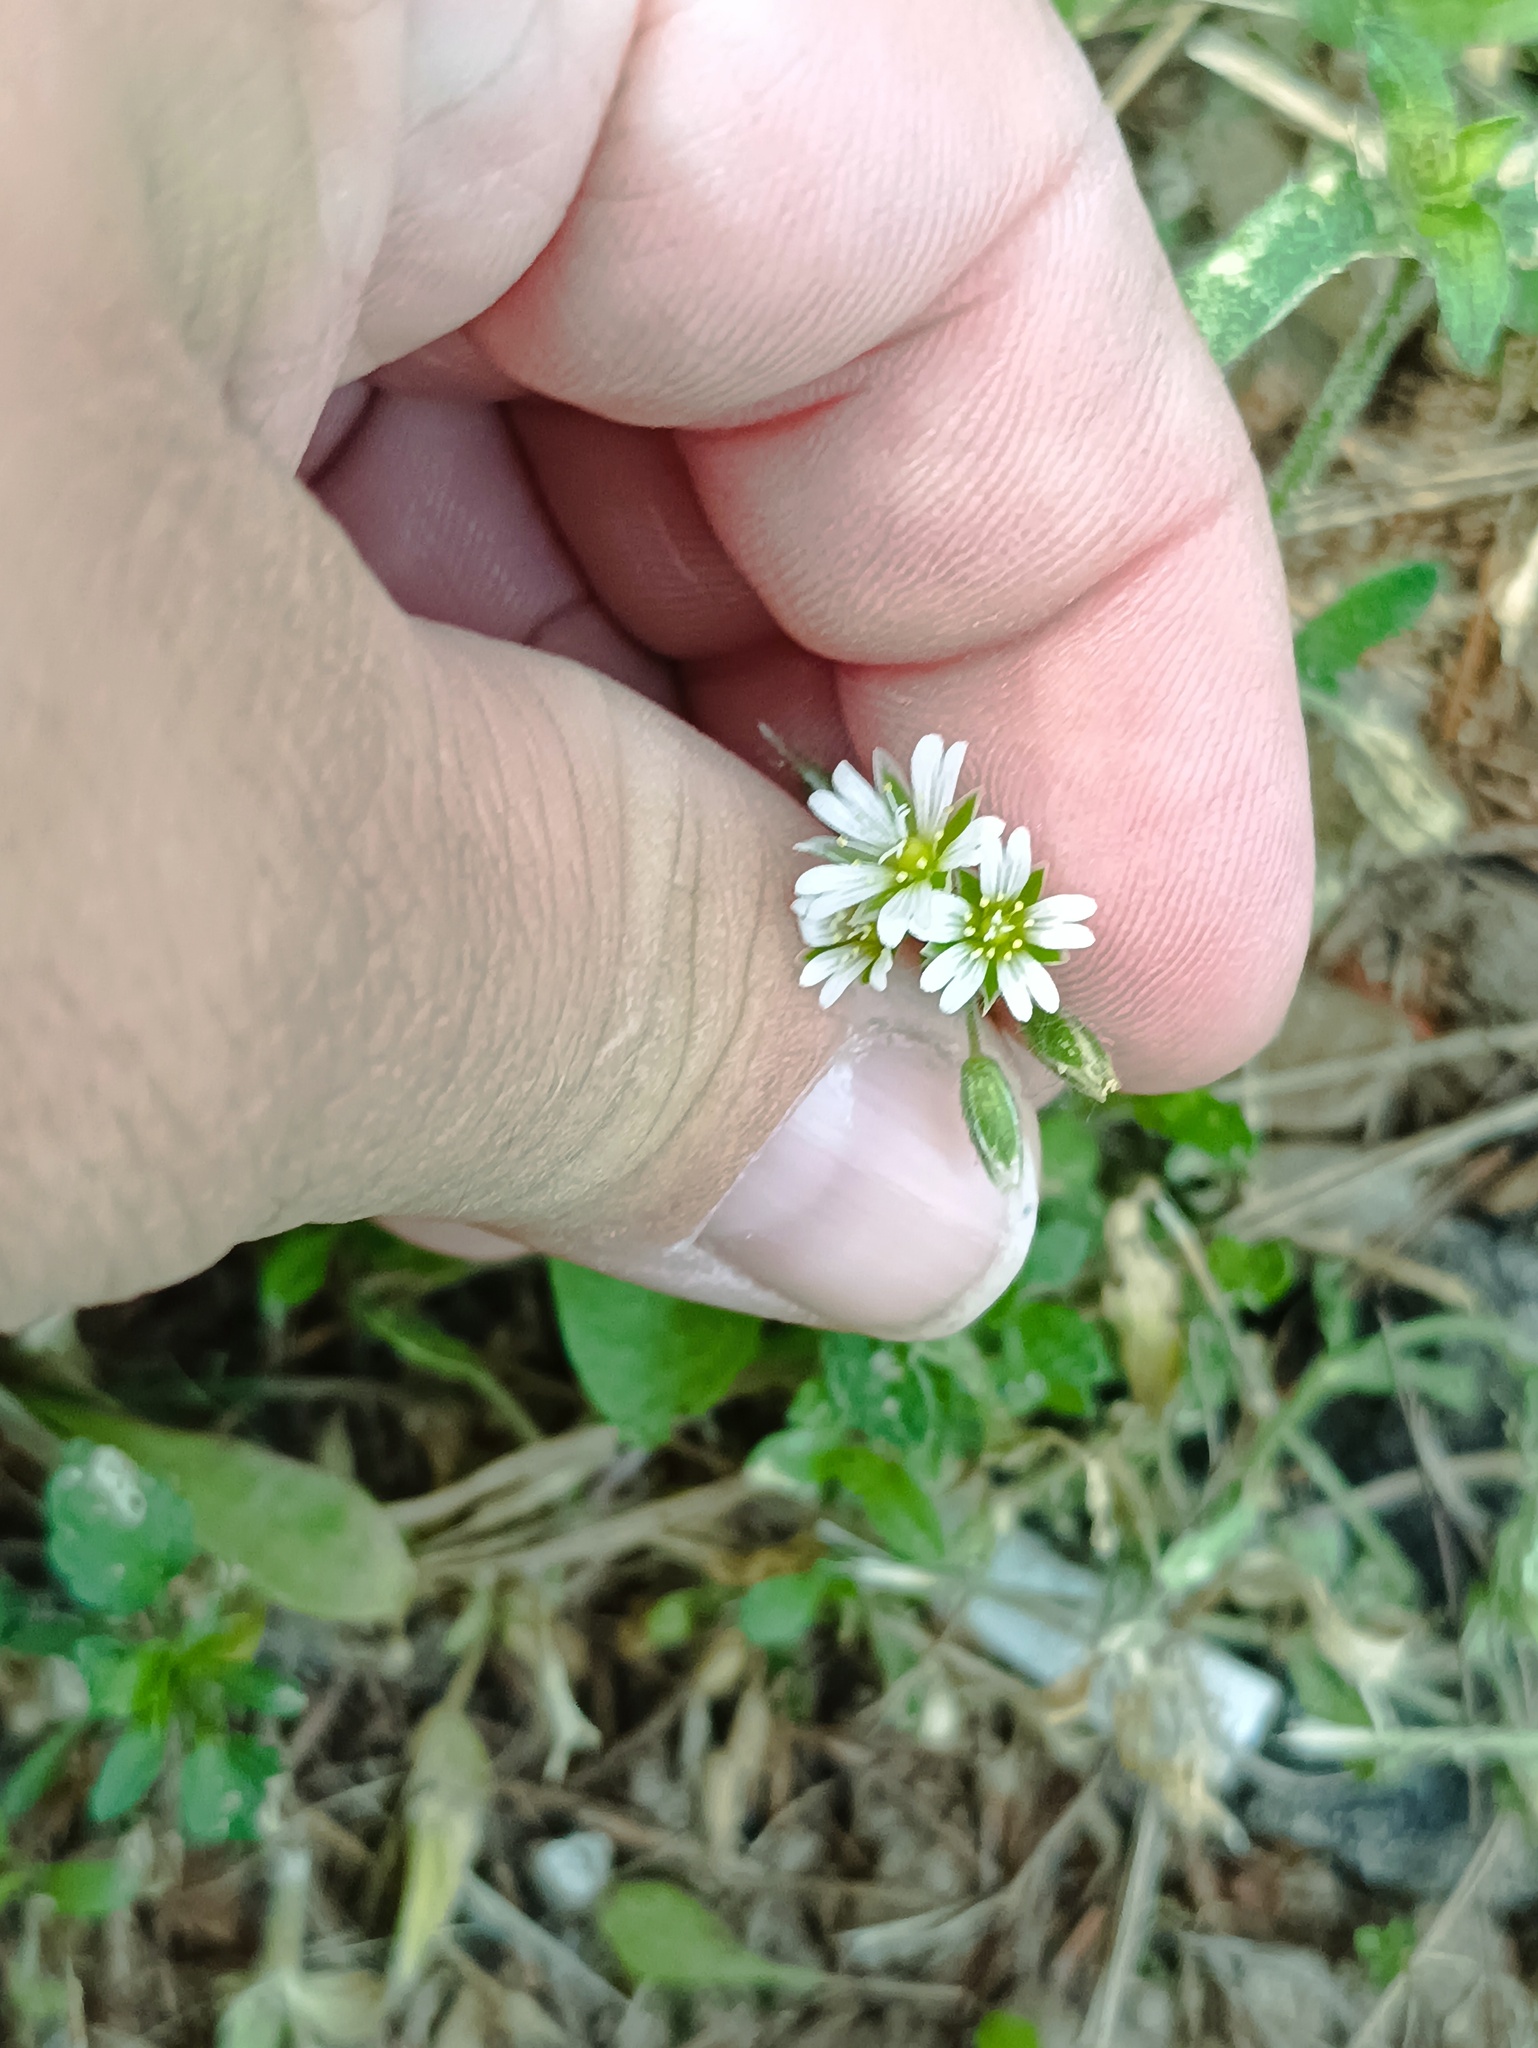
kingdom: Plantae
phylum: Tracheophyta
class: Magnoliopsida
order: Caryophyllales
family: Caryophyllaceae
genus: Cerastium
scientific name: Cerastium holosteoides
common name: Big chickweed
